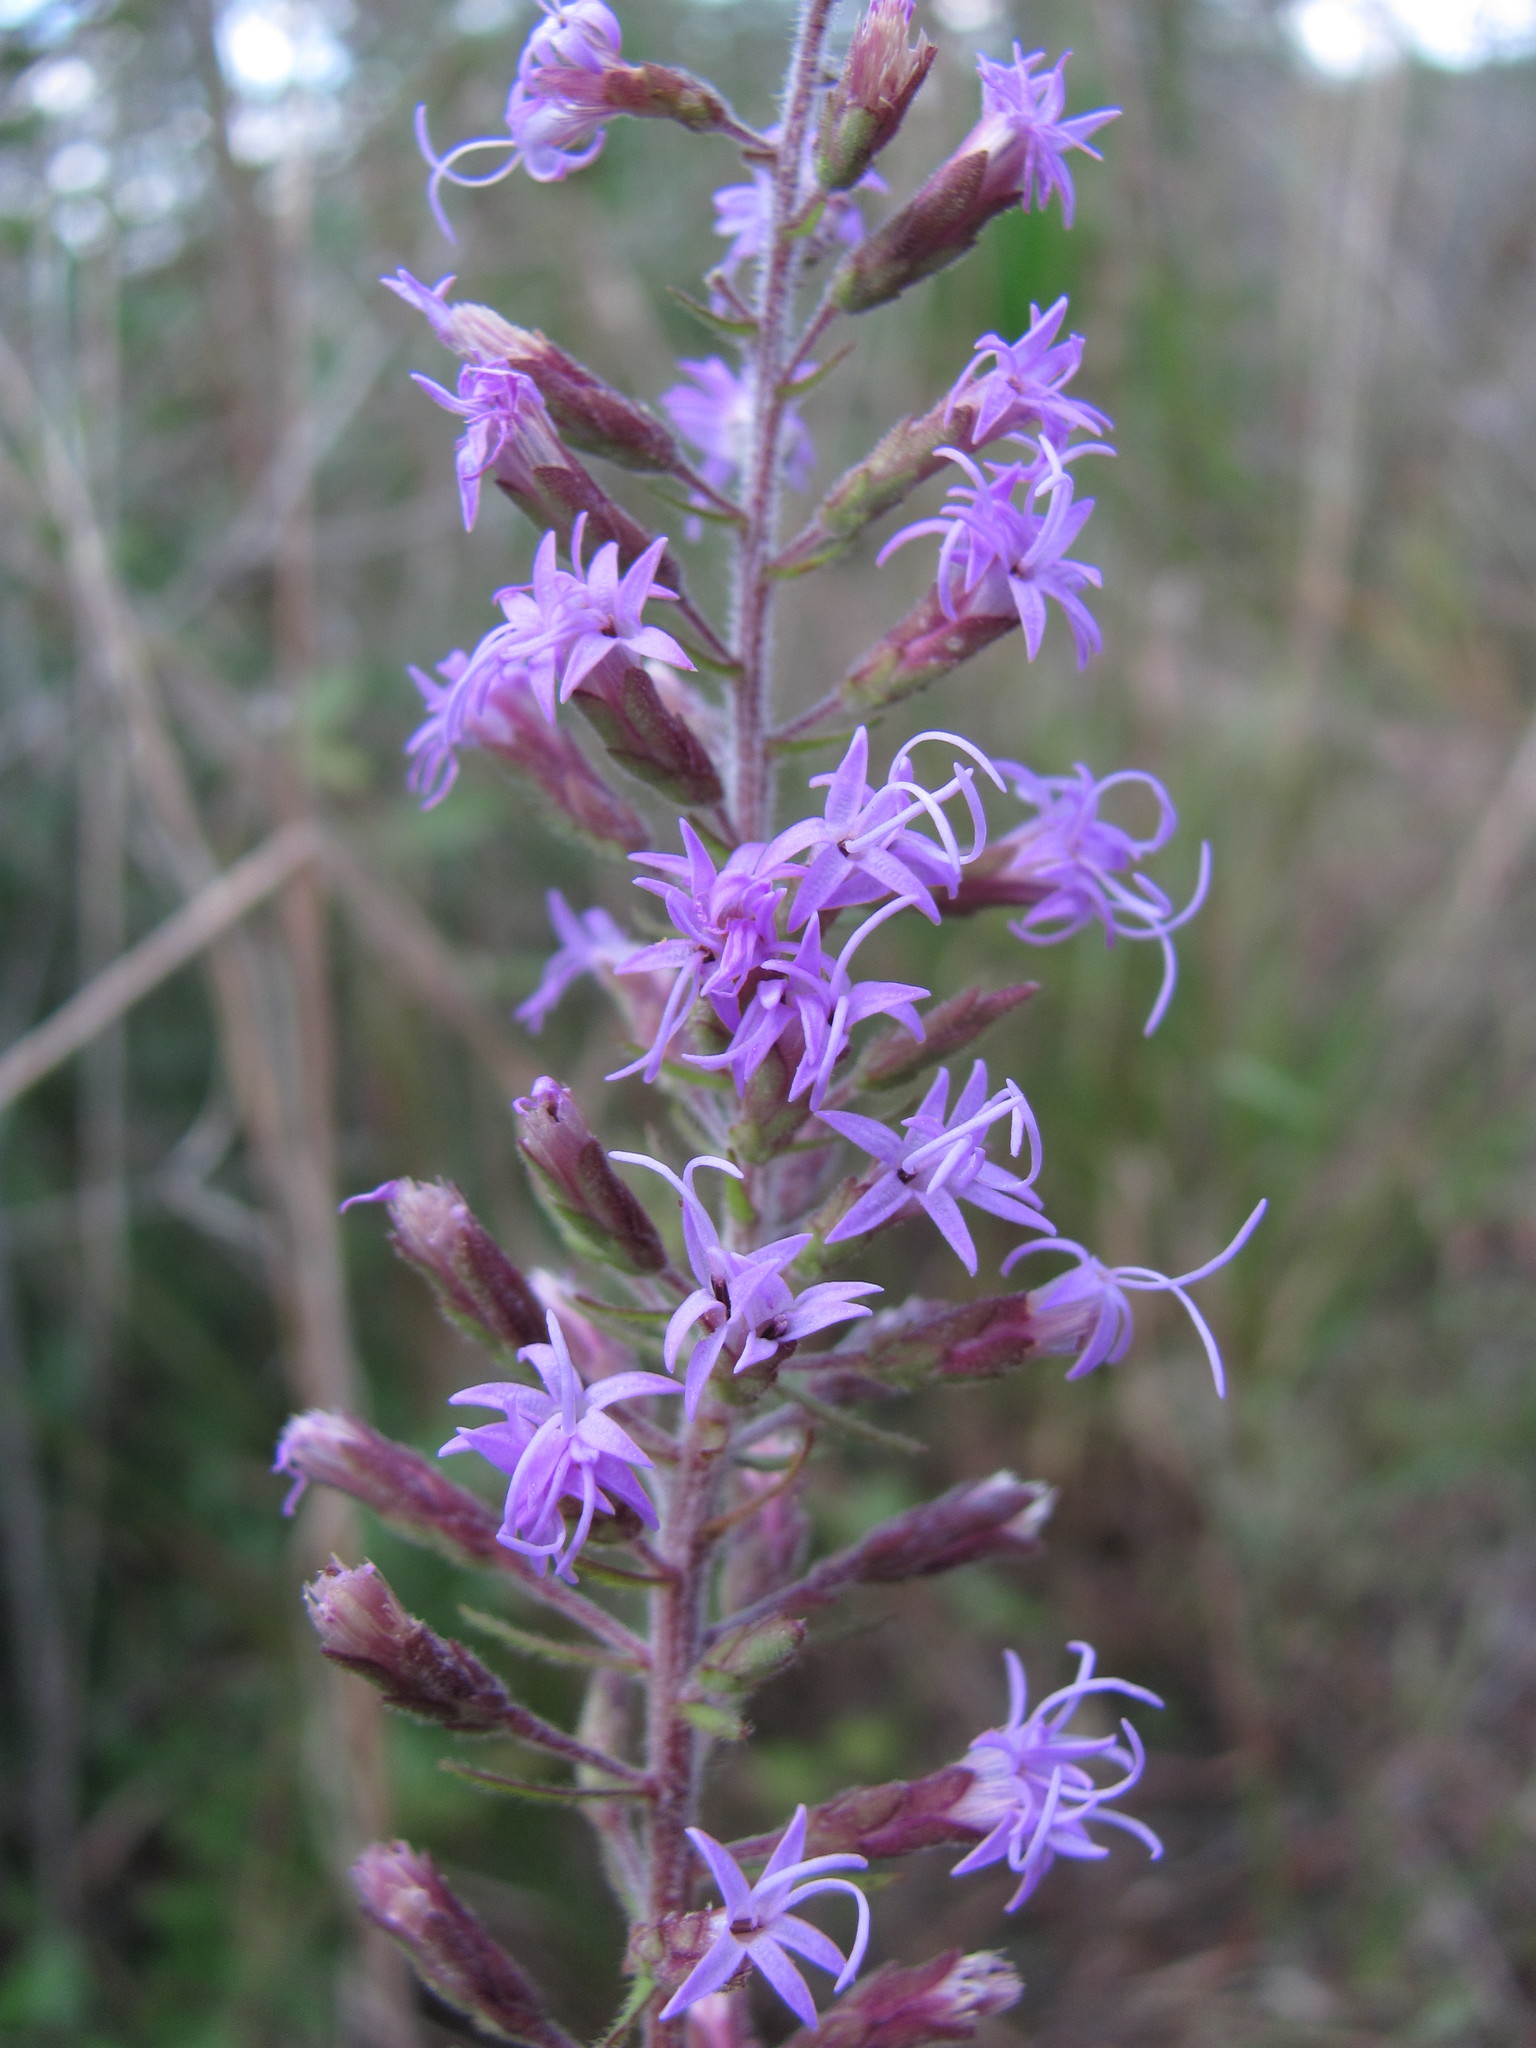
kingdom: Plantae
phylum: Tracheophyta
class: Magnoliopsida
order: Asterales
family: Asteraceae
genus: Liatris
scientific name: Liatris gracilis
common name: Slender gayfeather
